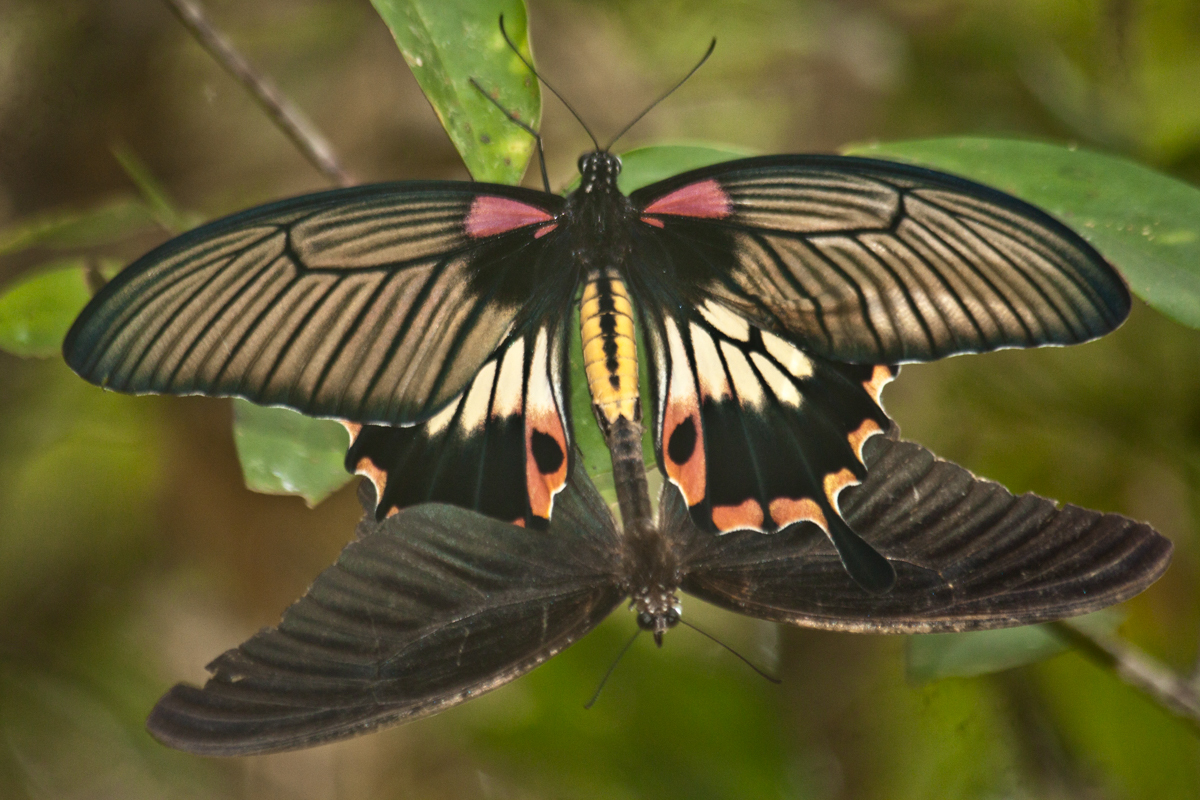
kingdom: Animalia
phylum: Arthropoda
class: Insecta
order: Lepidoptera
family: Papilionidae
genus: Papilio
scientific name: Papilio memnon
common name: Great mormon
